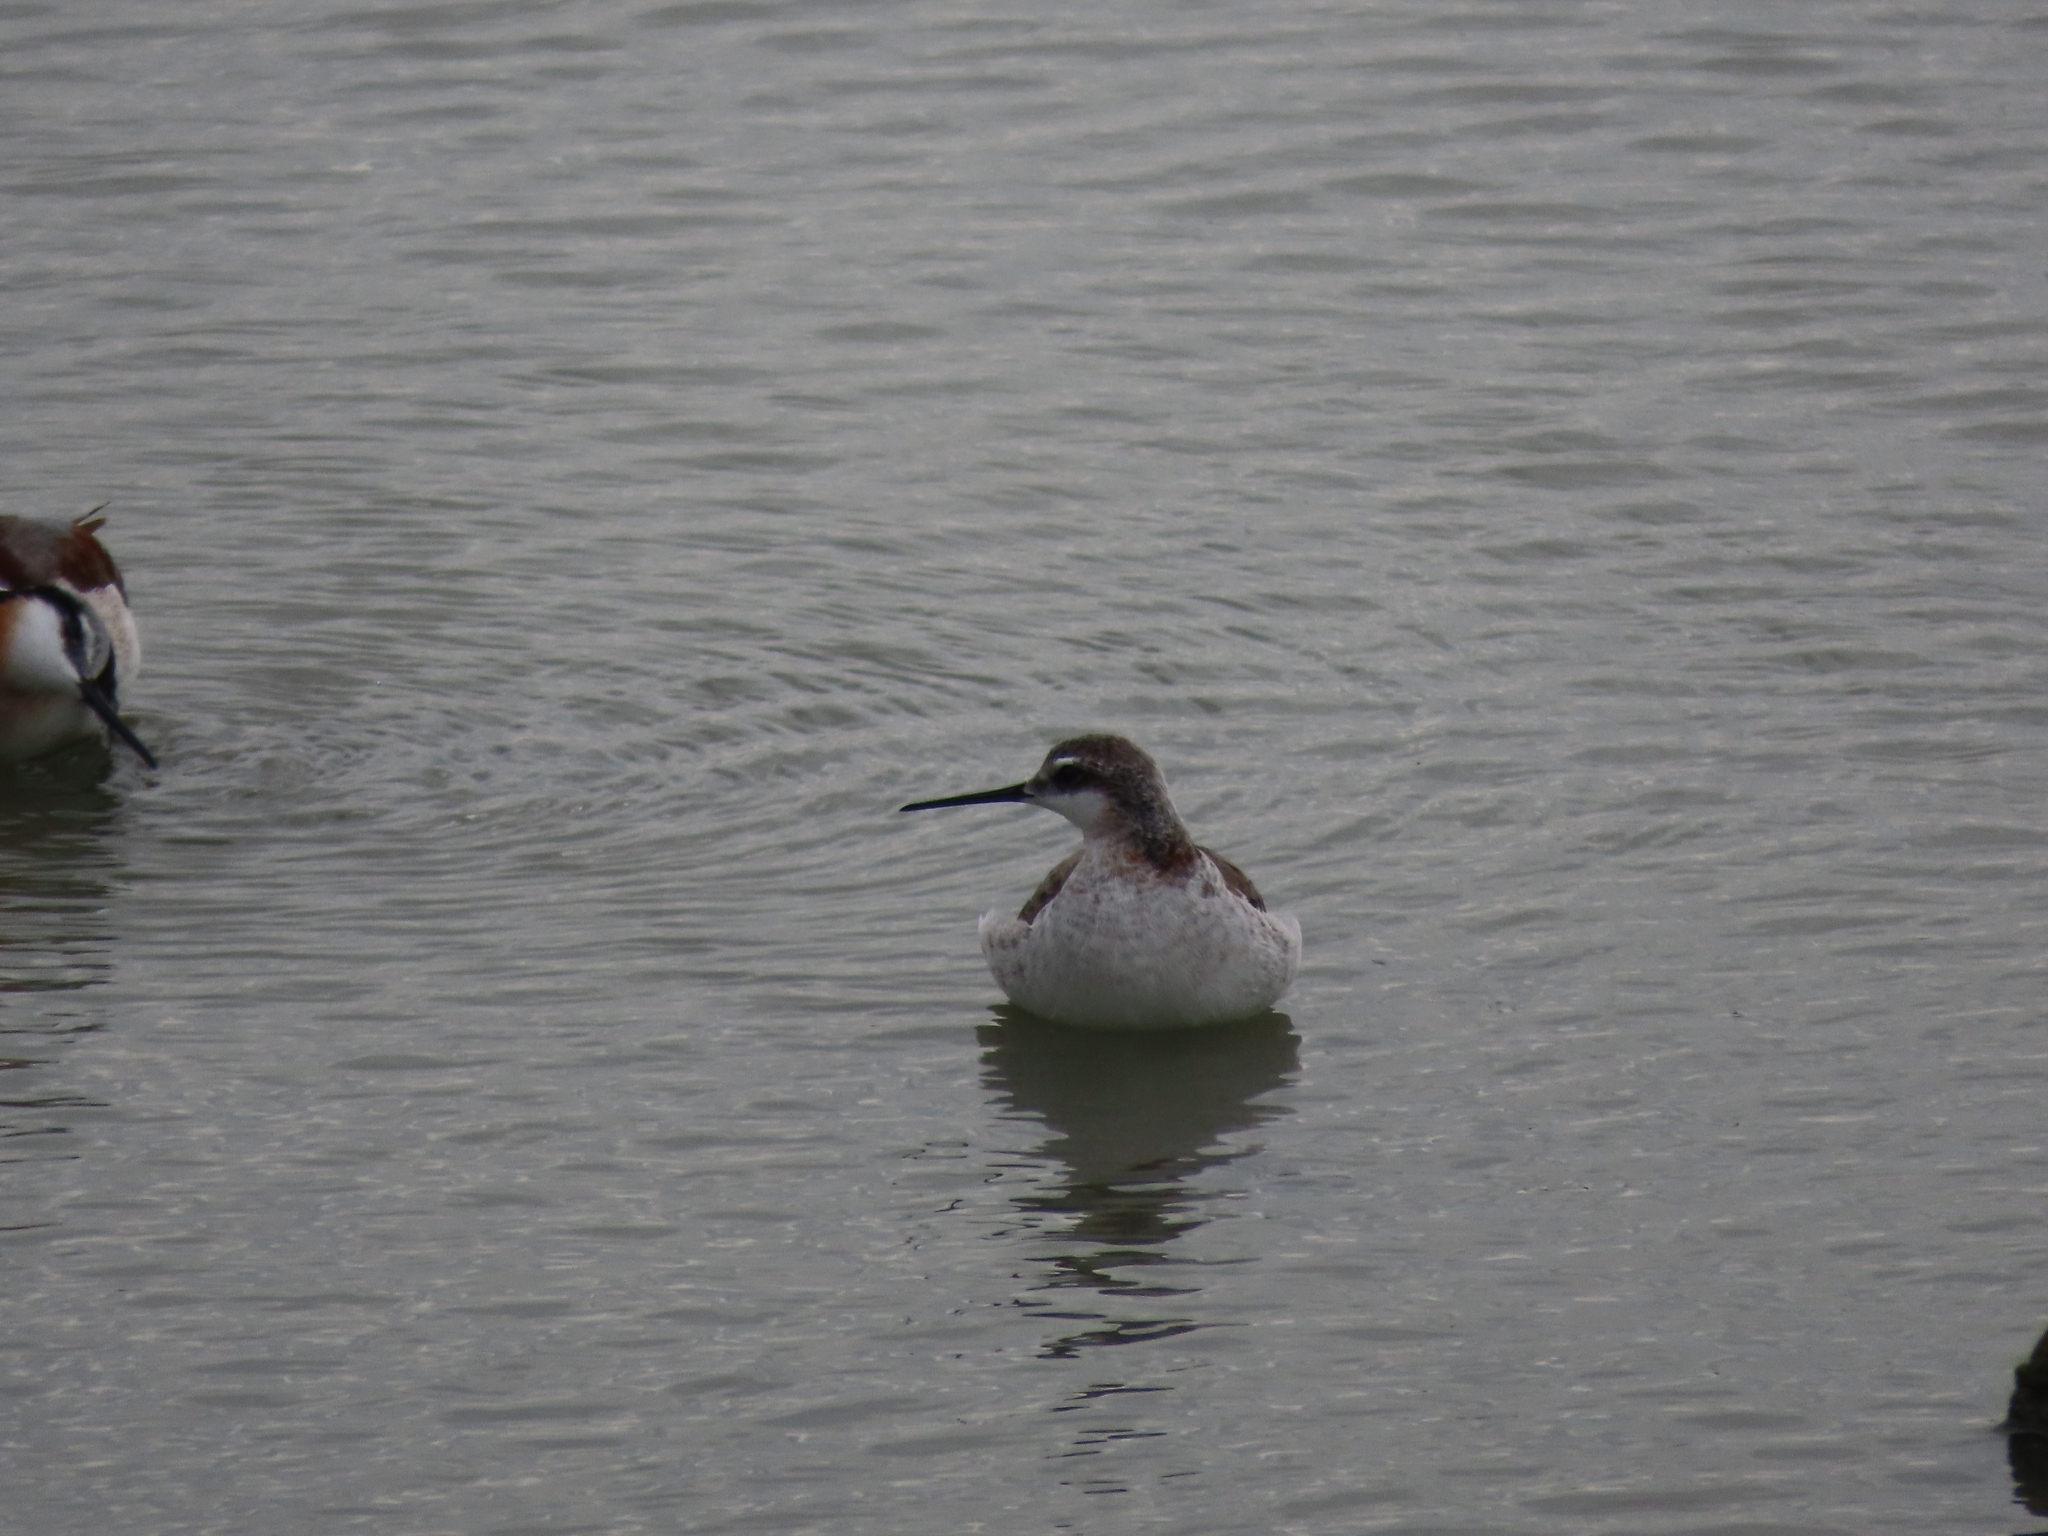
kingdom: Animalia
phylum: Chordata
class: Aves
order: Charadriiformes
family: Scolopacidae
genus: Phalaropus
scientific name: Phalaropus tricolor
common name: Wilson's phalarope
